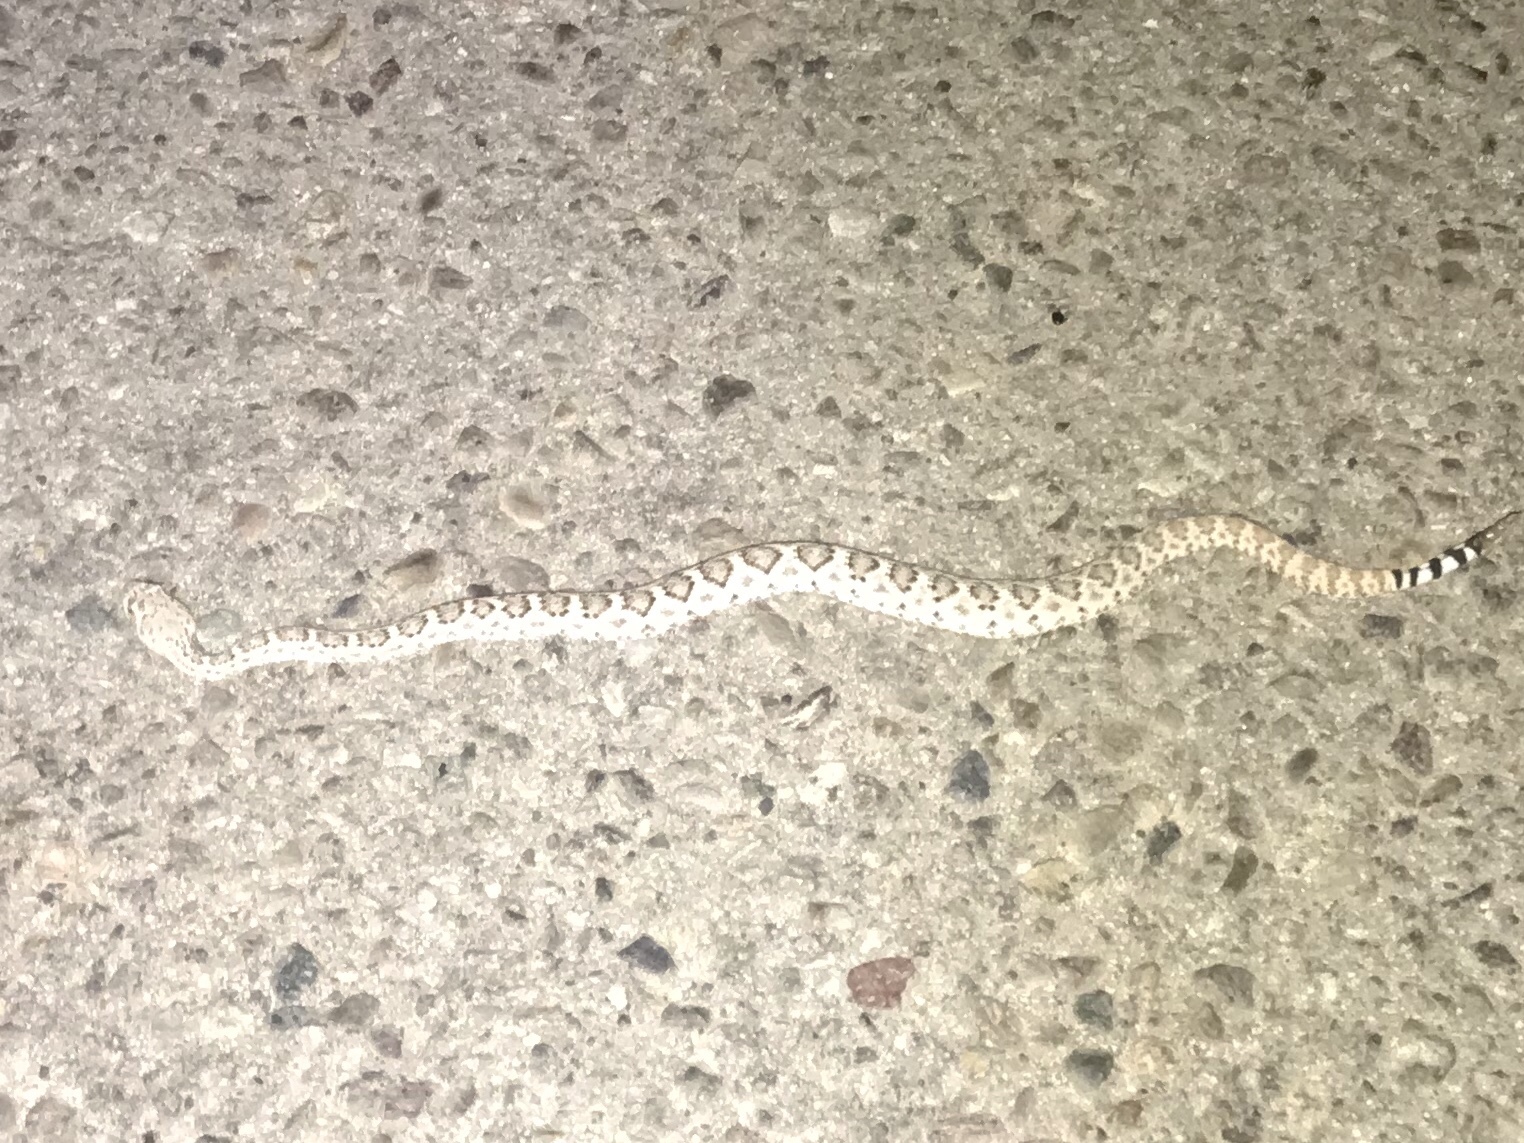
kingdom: Animalia
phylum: Chordata
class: Squamata
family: Viperidae
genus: Crotalus
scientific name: Crotalus atrox
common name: Western diamond-backed rattlesnake
